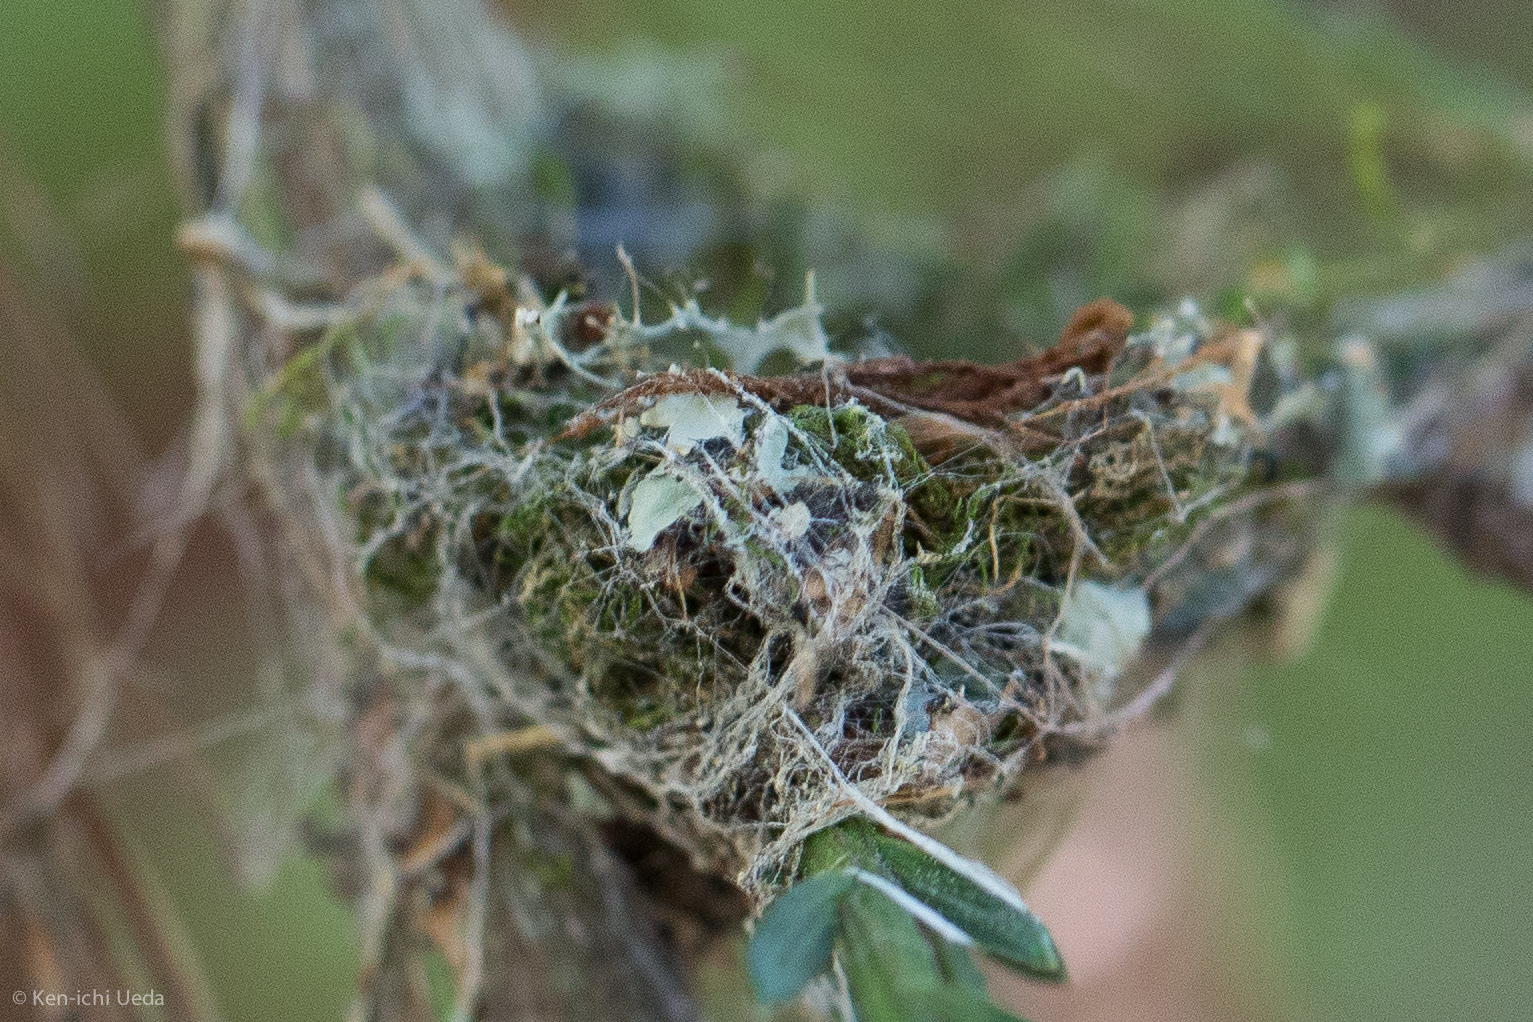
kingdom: Animalia
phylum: Chordata
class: Aves
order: Apodiformes
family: Trochilidae
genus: Calypte
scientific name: Calypte anna
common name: Anna's hummingbird
